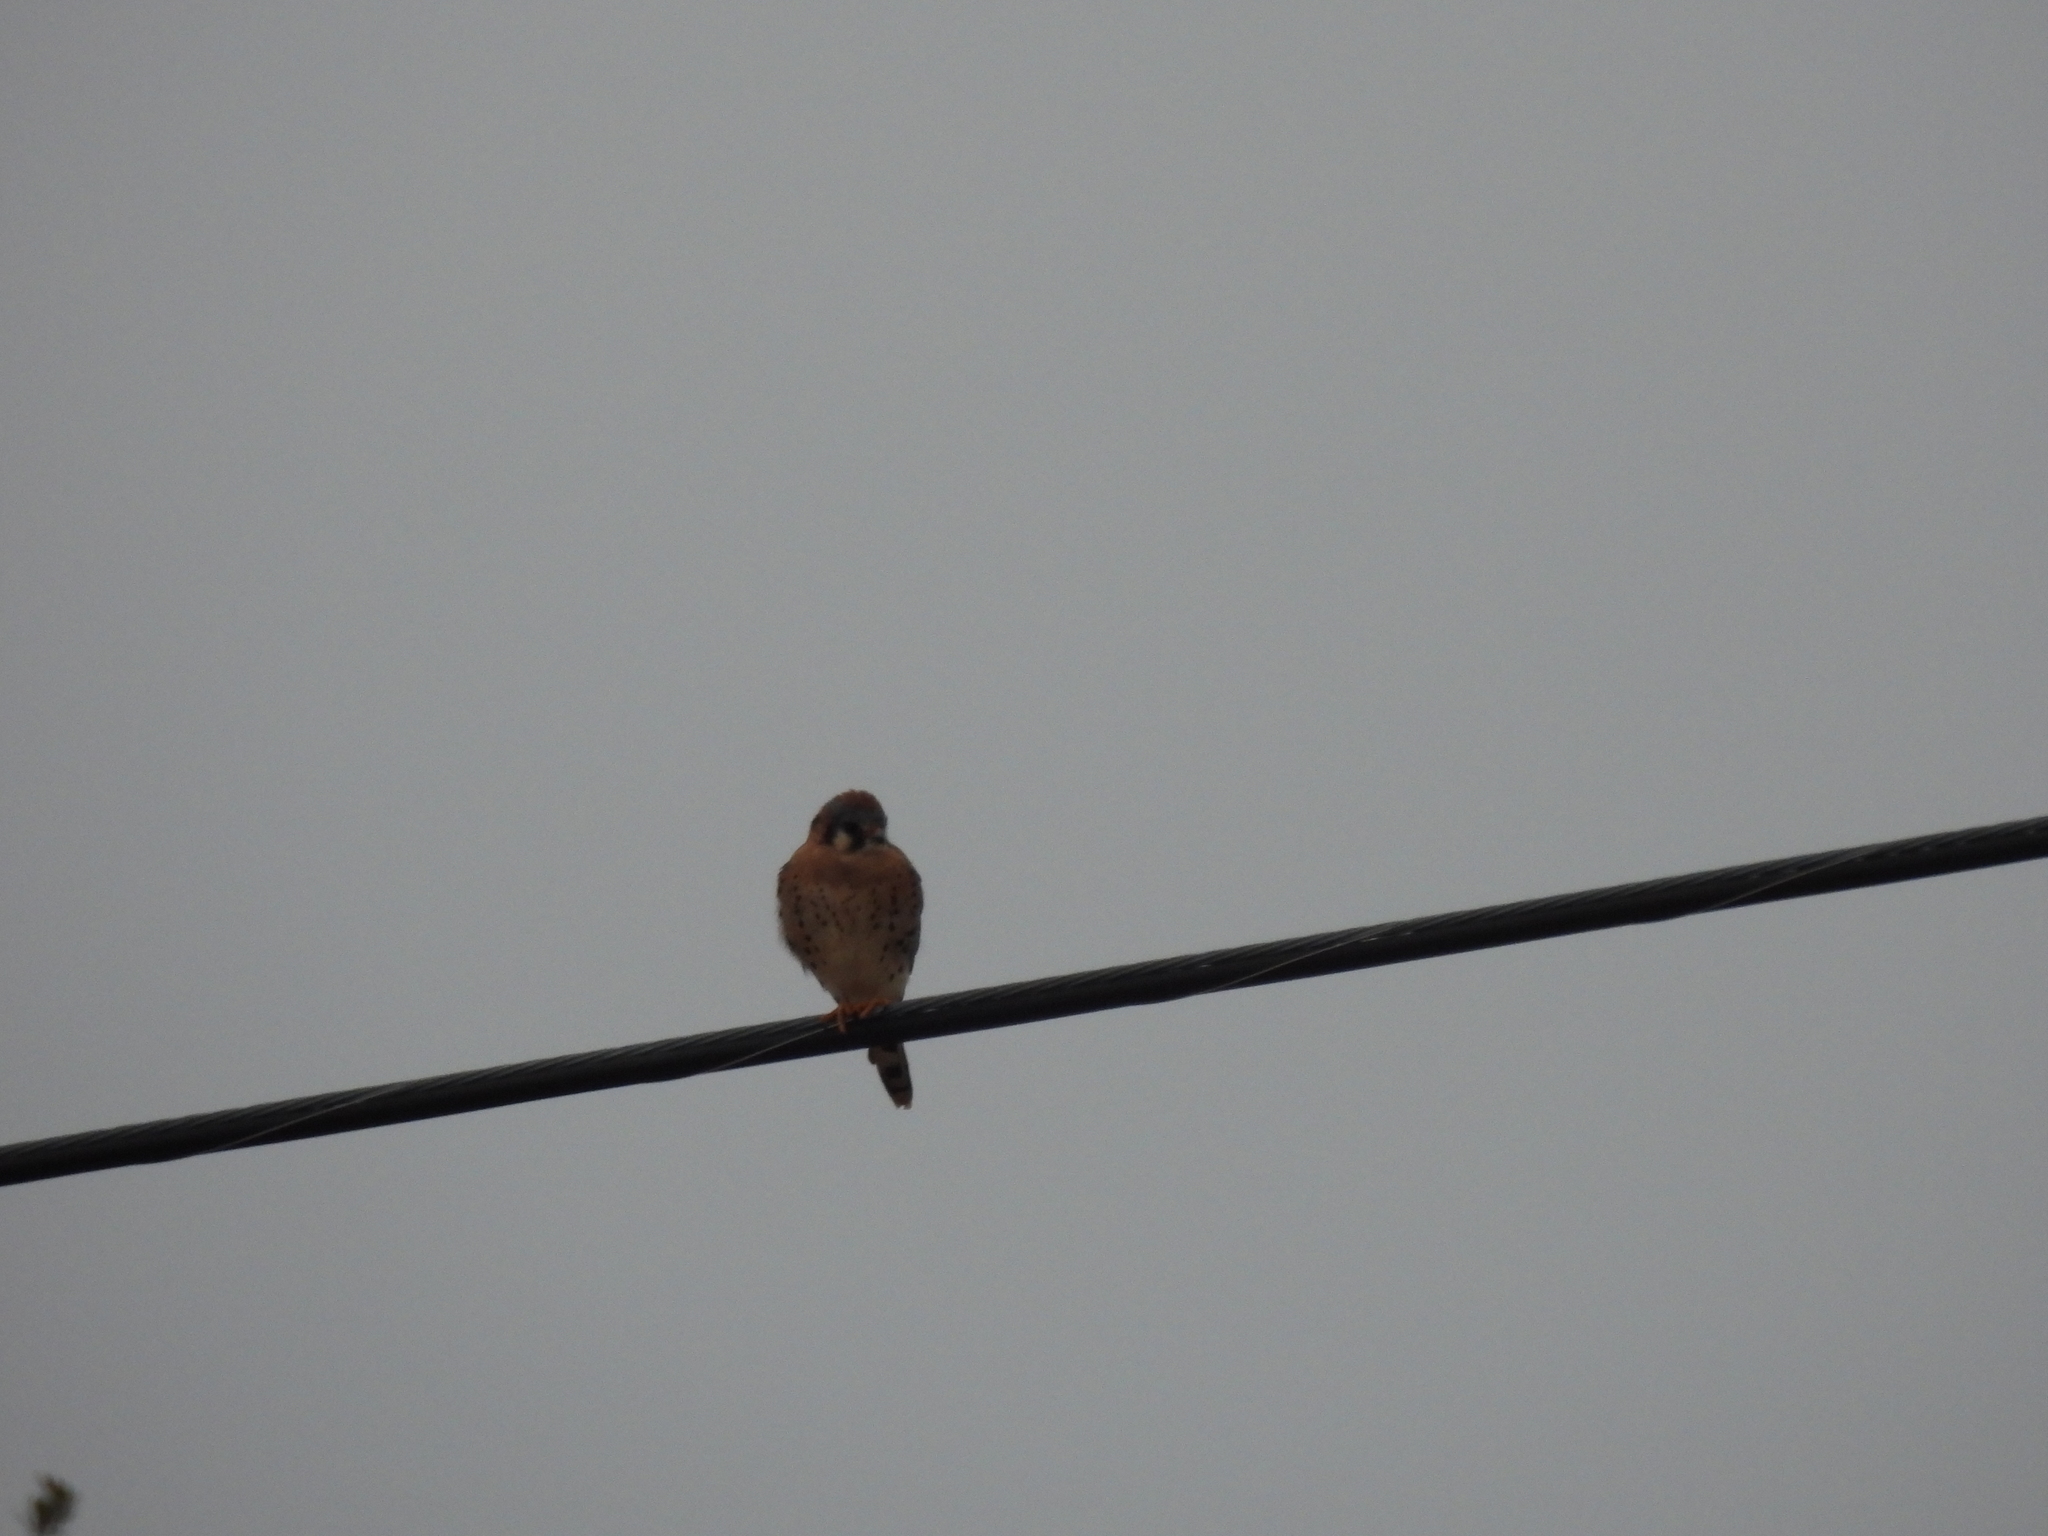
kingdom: Animalia
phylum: Chordata
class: Aves
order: Falconiformes
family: Falconidae
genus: Falco
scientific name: Falco sparverius
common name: American kestrel
